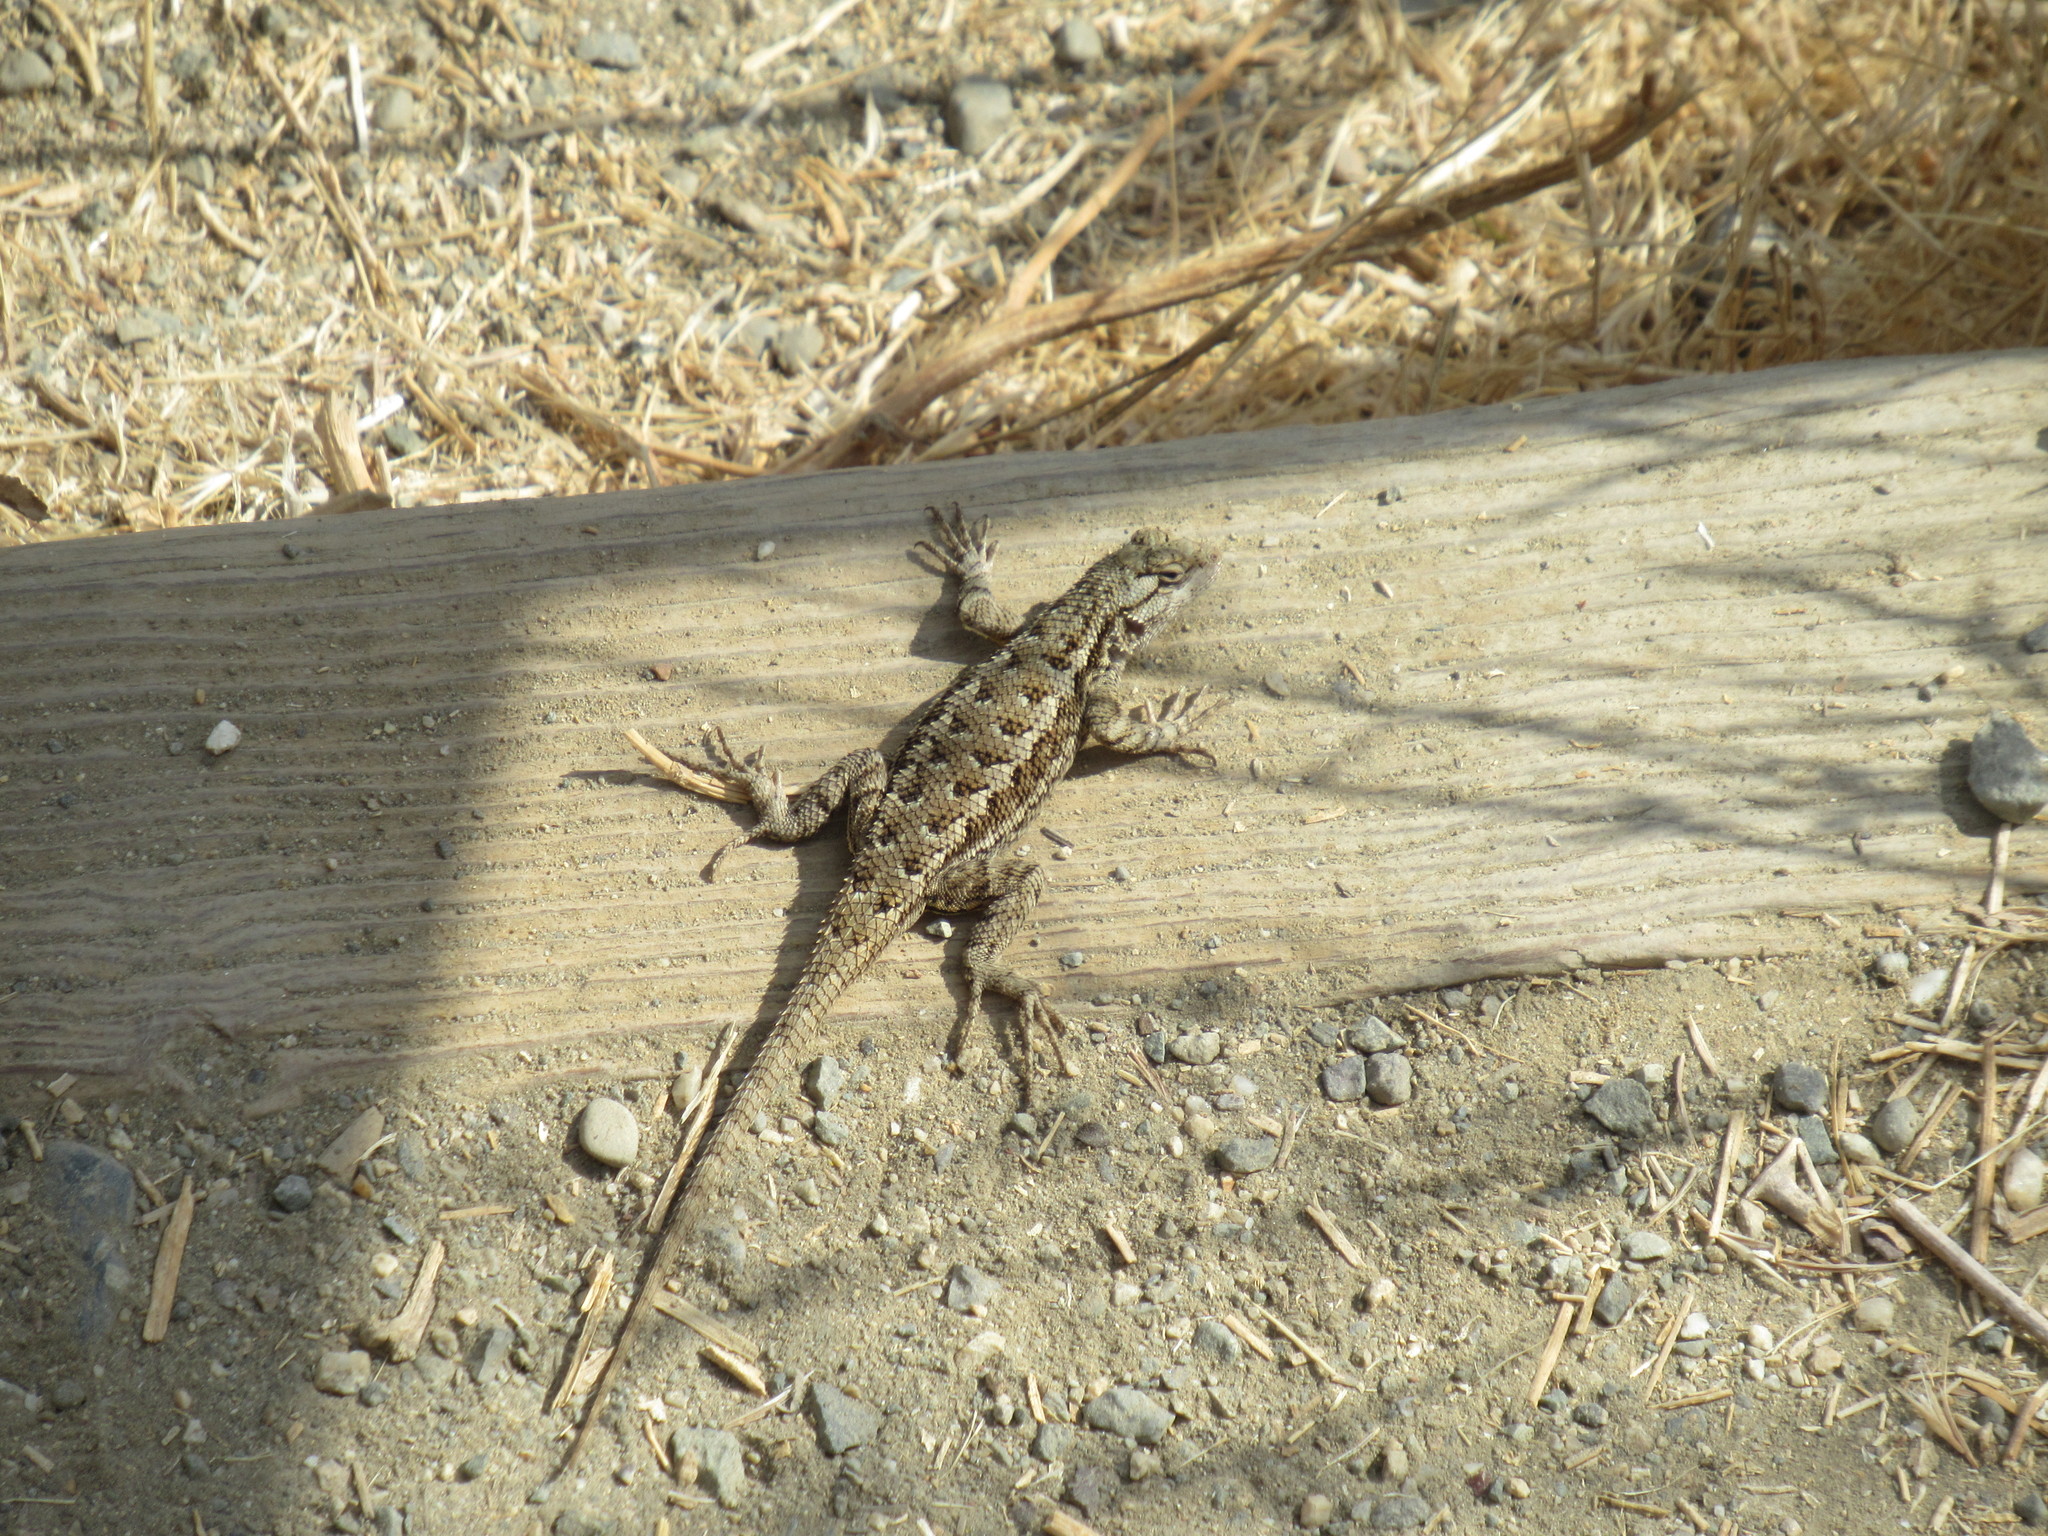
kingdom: Animalia
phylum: Chordata
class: Squamata
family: Phrynosomatidae
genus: Sceloporus
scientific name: Sceloporus occidentalis
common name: Western fence lizard
